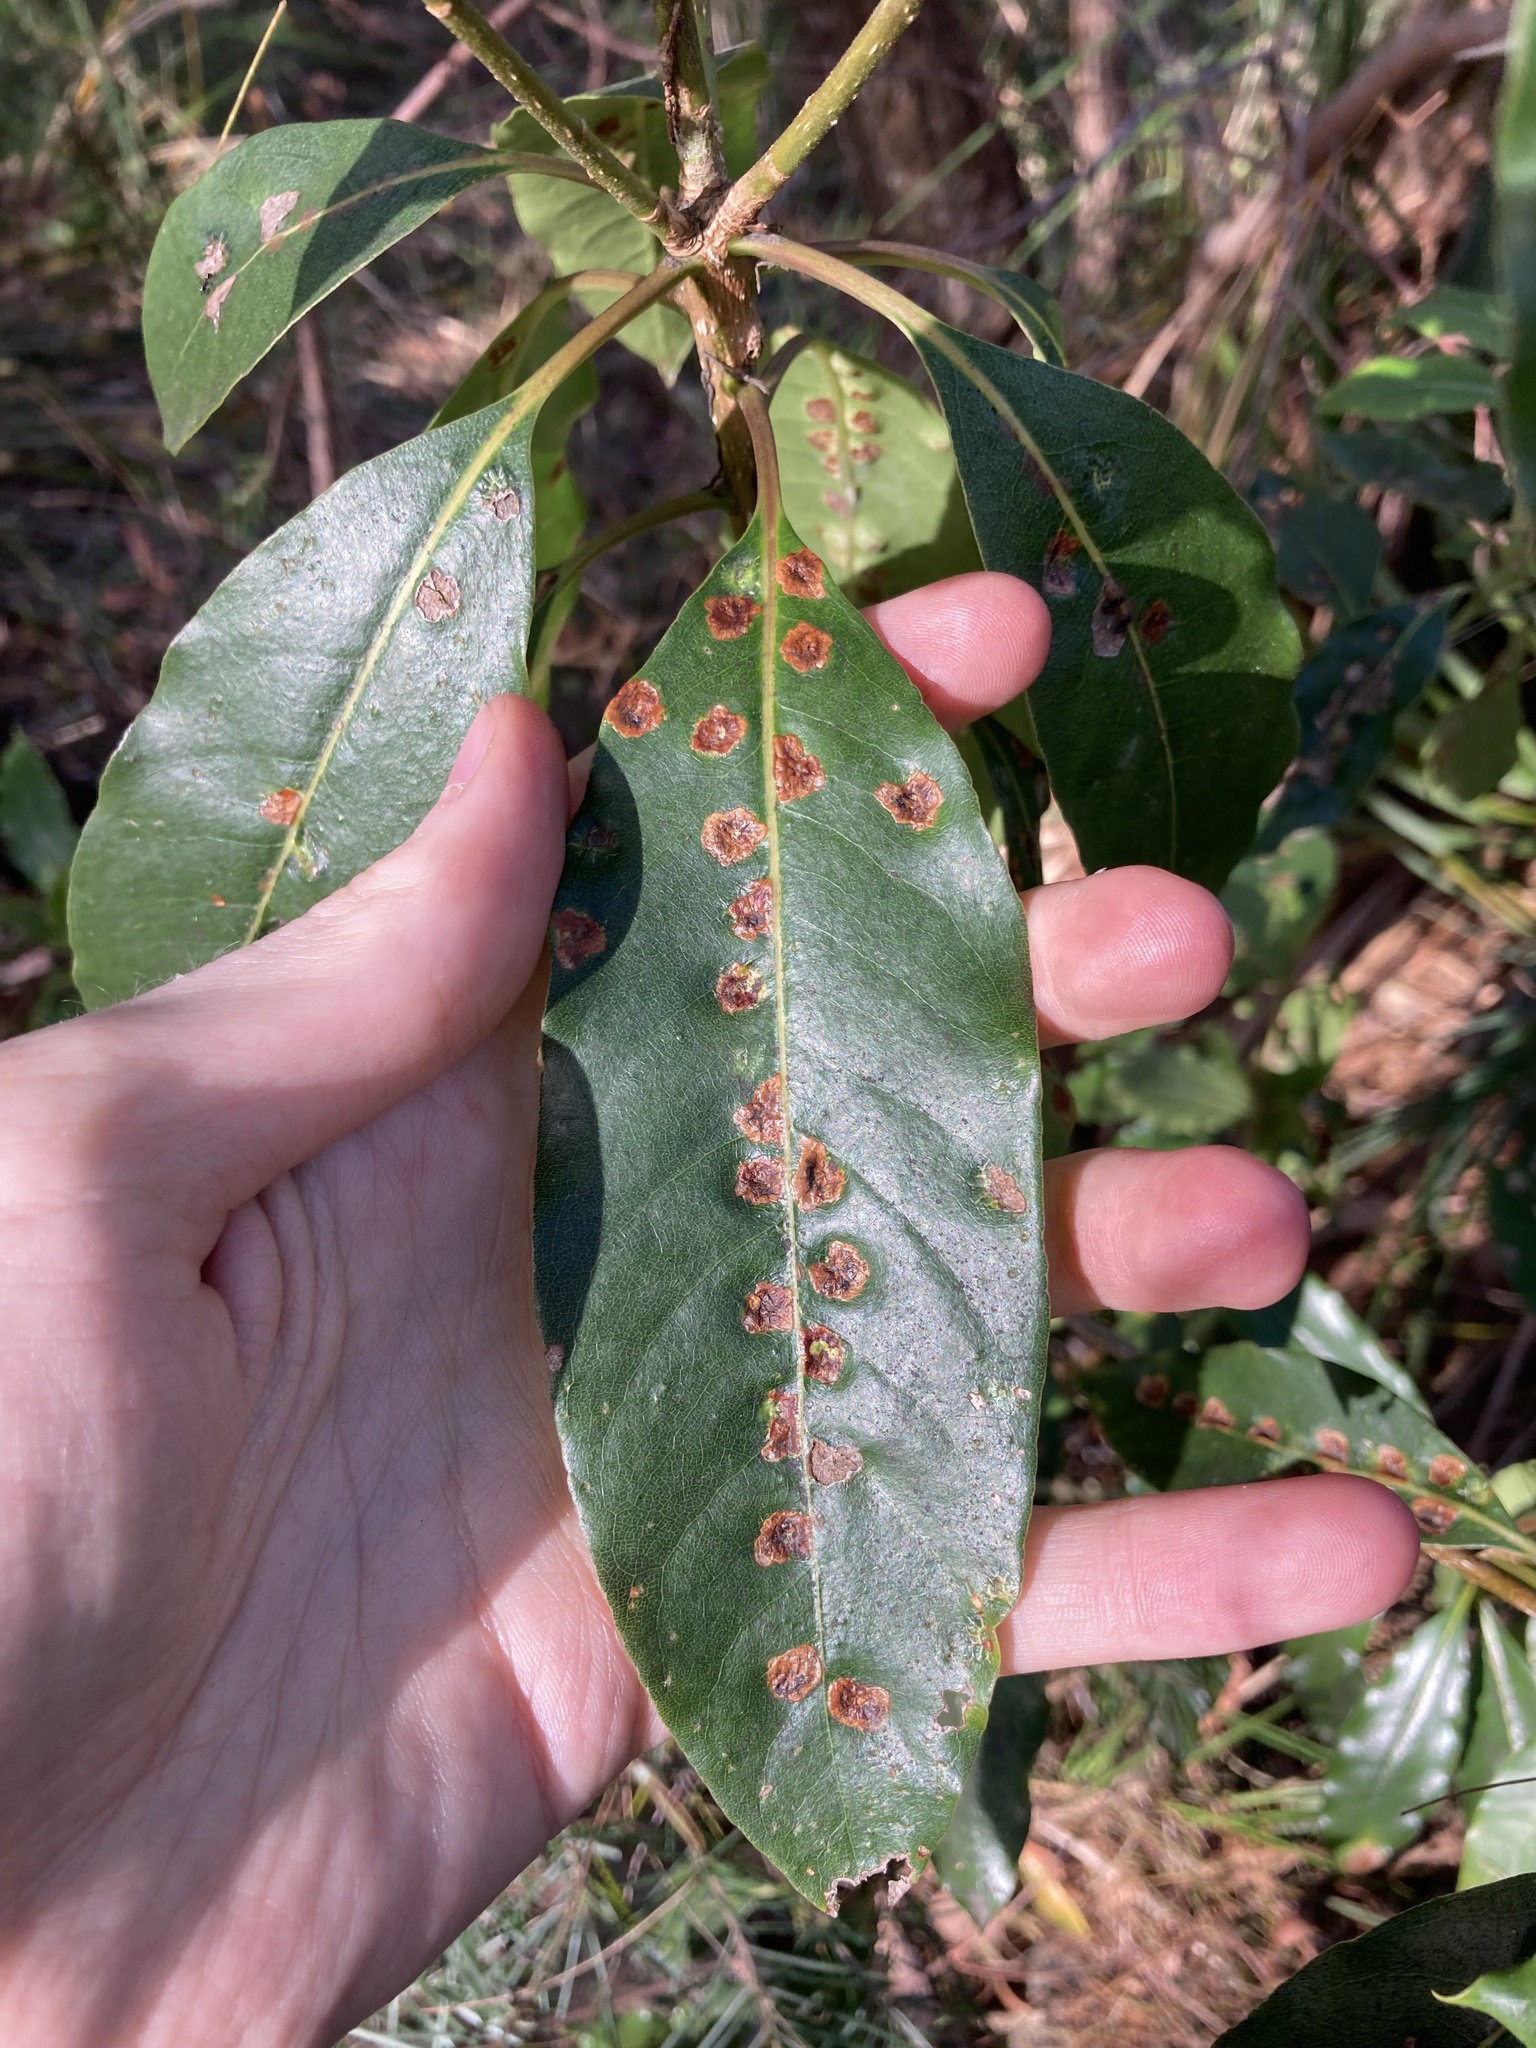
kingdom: Animalia
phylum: Arthropoda
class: Insecta
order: Diptera
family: Agromyzidae
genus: Phytoliriomyza
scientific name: Phytoliriomyza pittosporophylli
